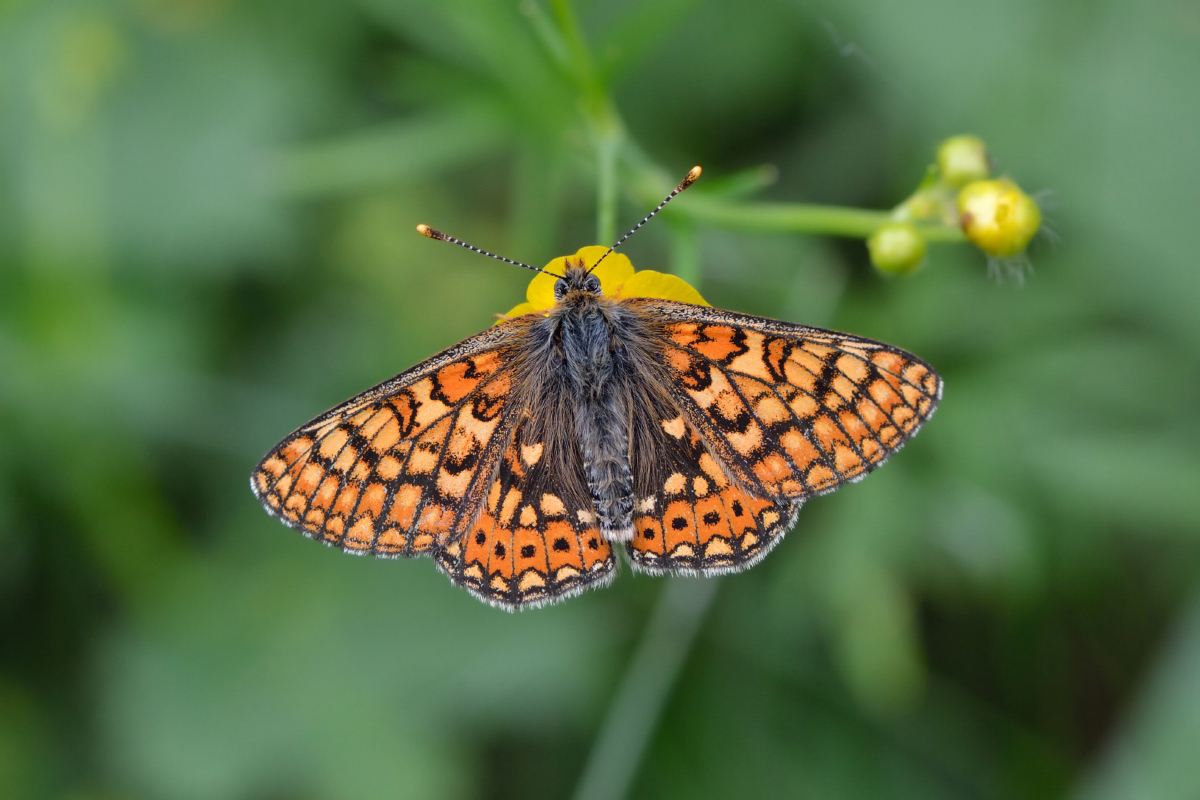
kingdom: Animalia
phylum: Arthropoda
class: Insecta
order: Lepidoptera
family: Nymphalidae
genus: Euphydryas
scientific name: Euphydryas aurinia
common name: Marsh fritillary
